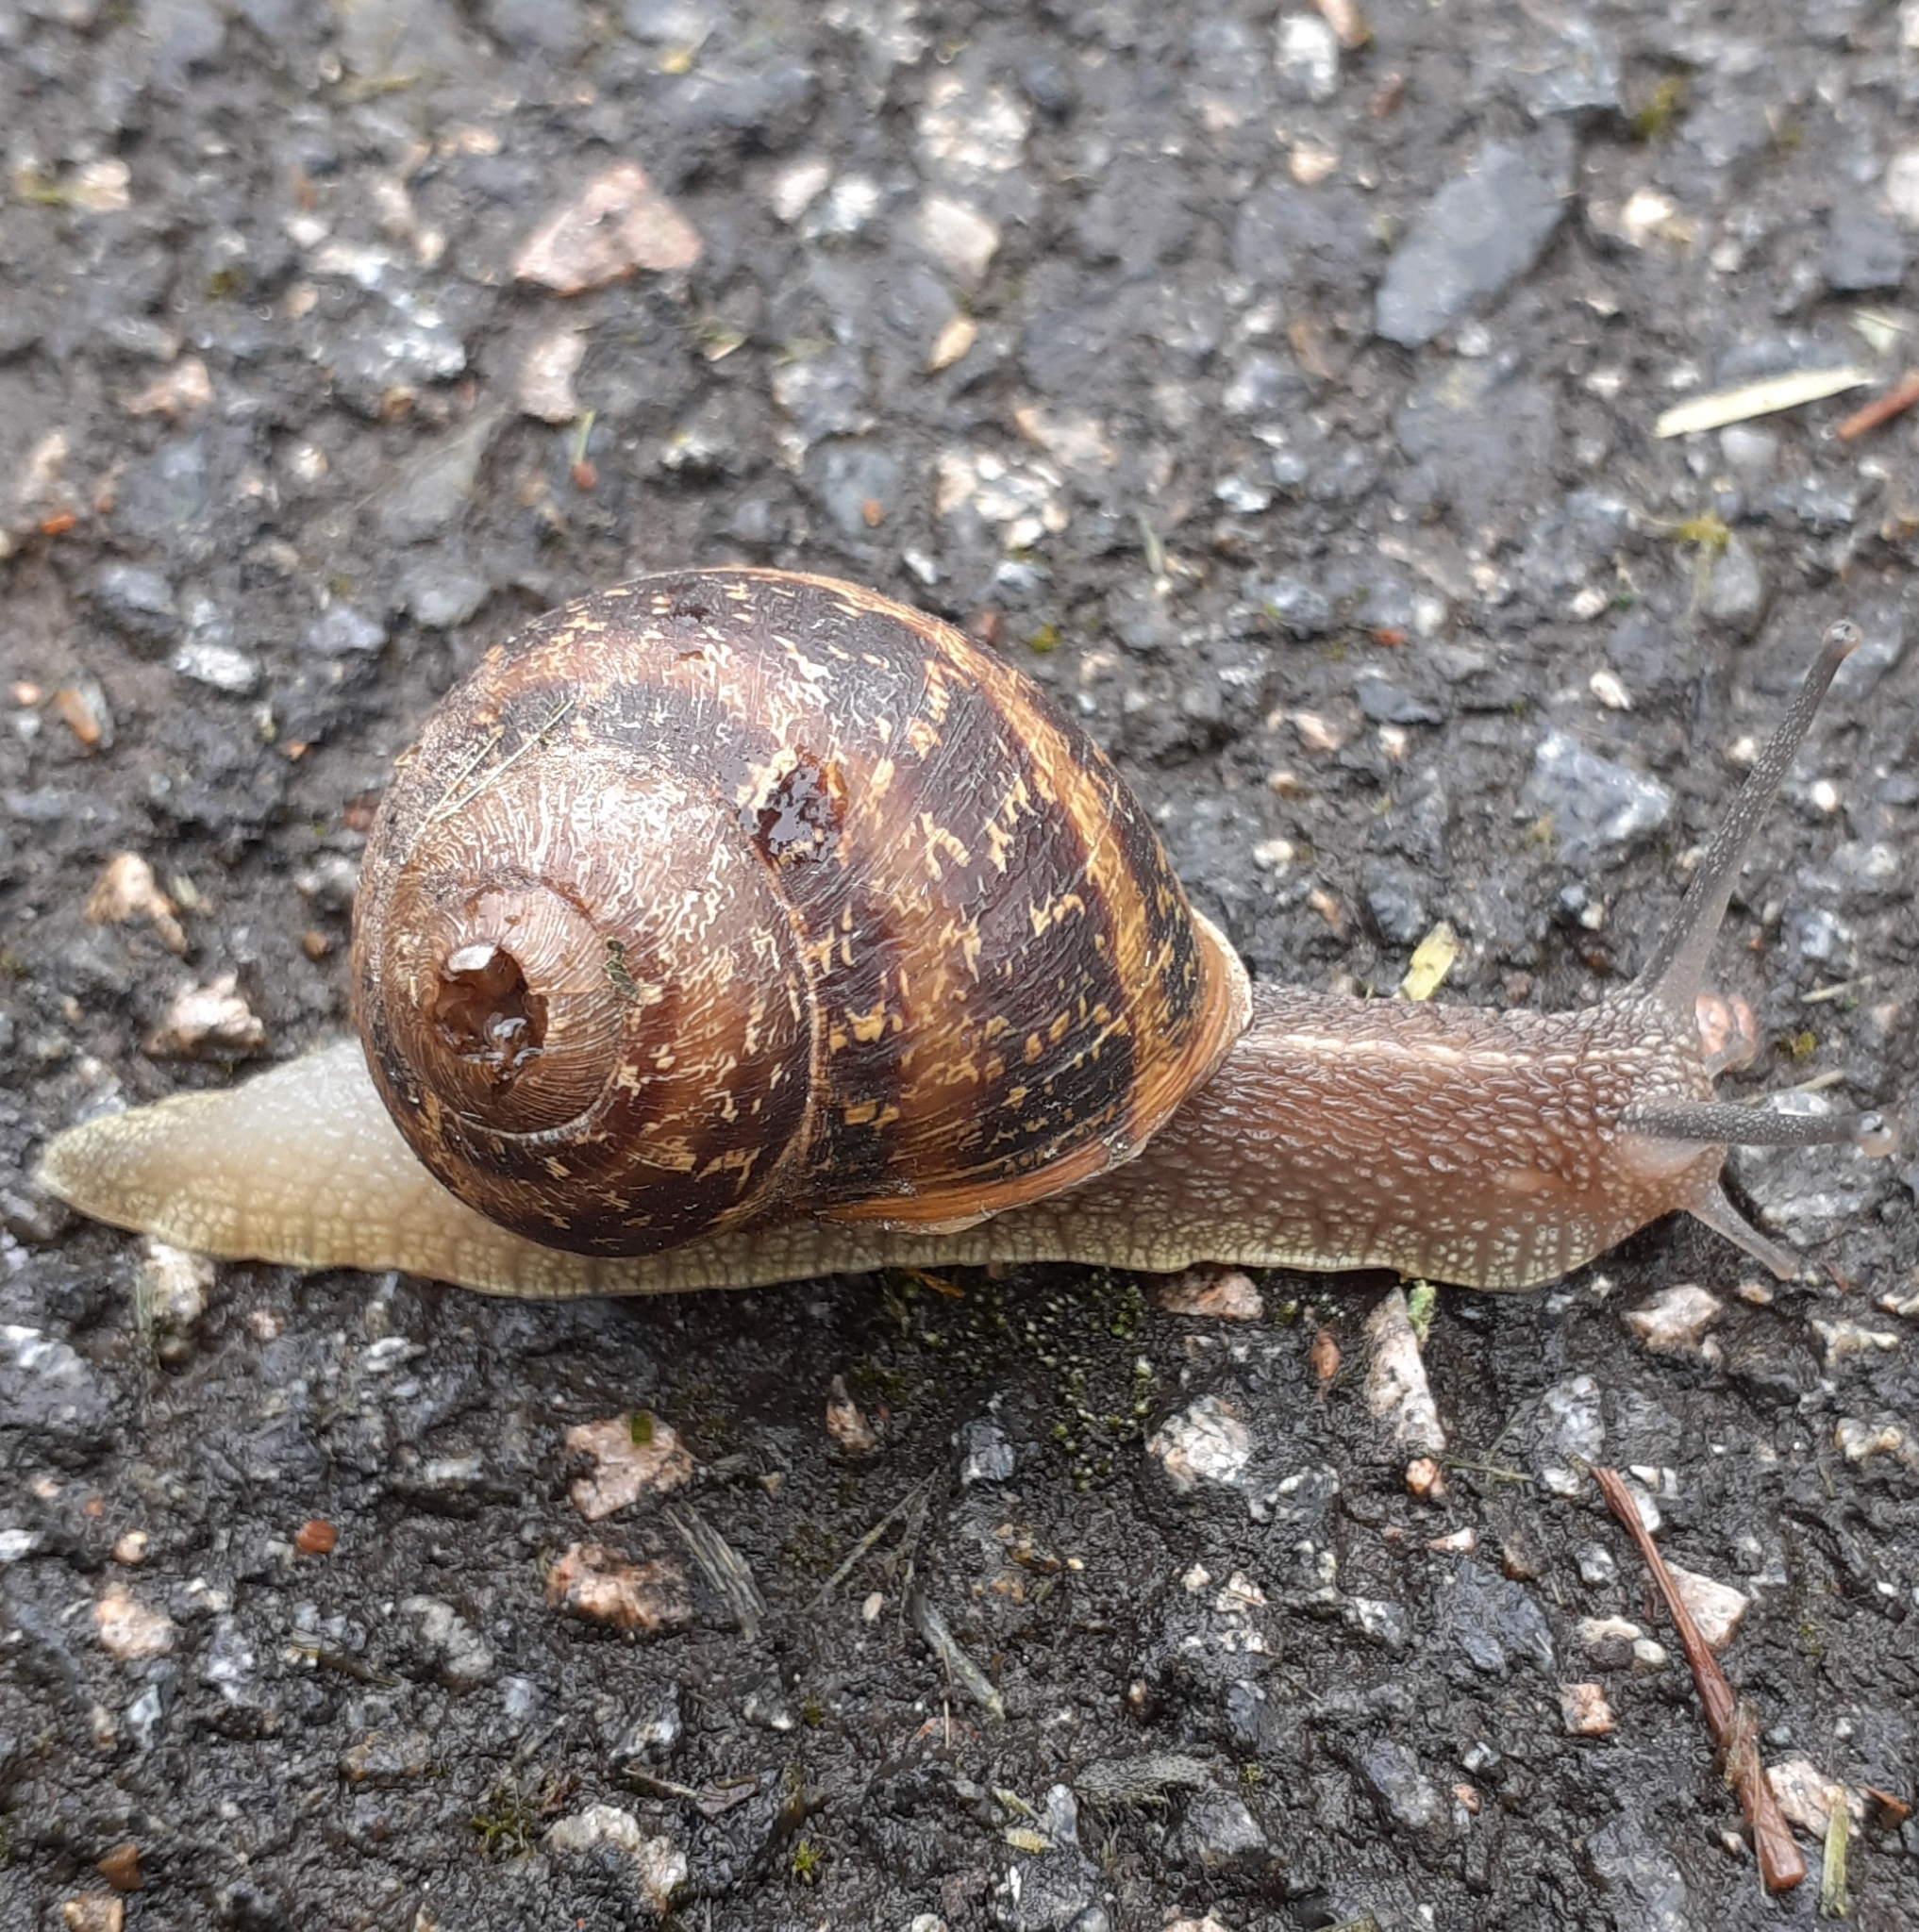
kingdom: Animalia
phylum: Mollusca
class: Gastropoda
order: Stylommatophora
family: Helicidae
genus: Cornu
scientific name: Cornu aspersum
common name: Brown garden snail
